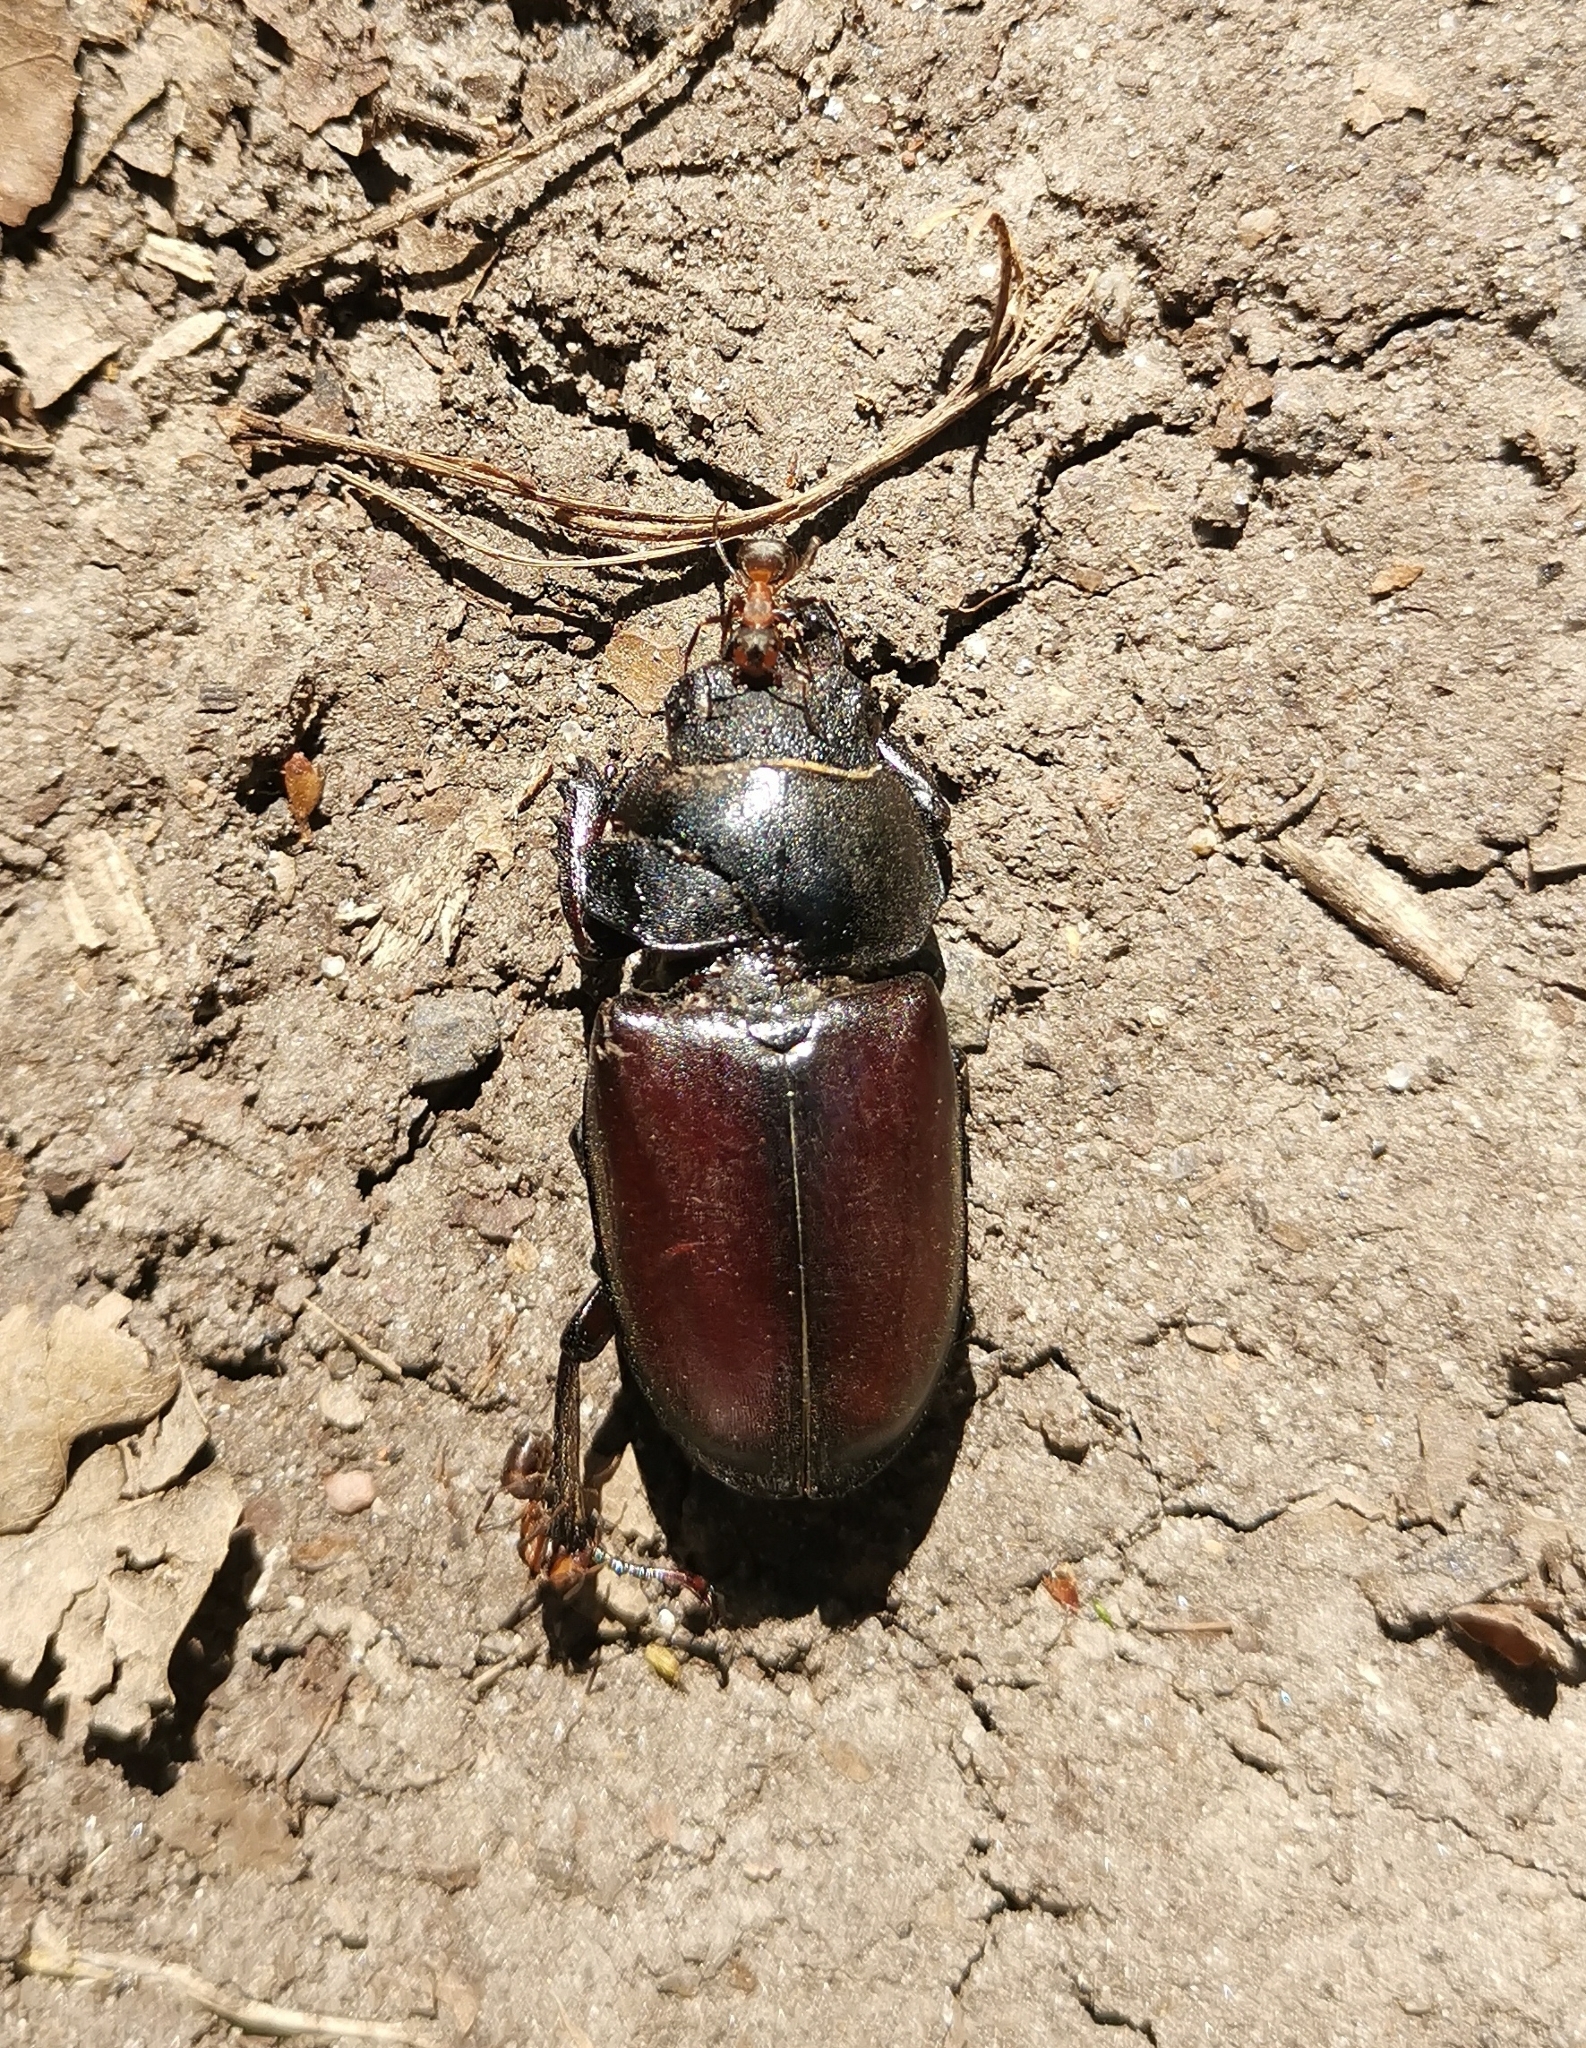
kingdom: Animalia
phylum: Arthropoda
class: Insecta
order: Coleoptera
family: Lucanidae
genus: Lucanus
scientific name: Lucanus cervus
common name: Stag beetle
